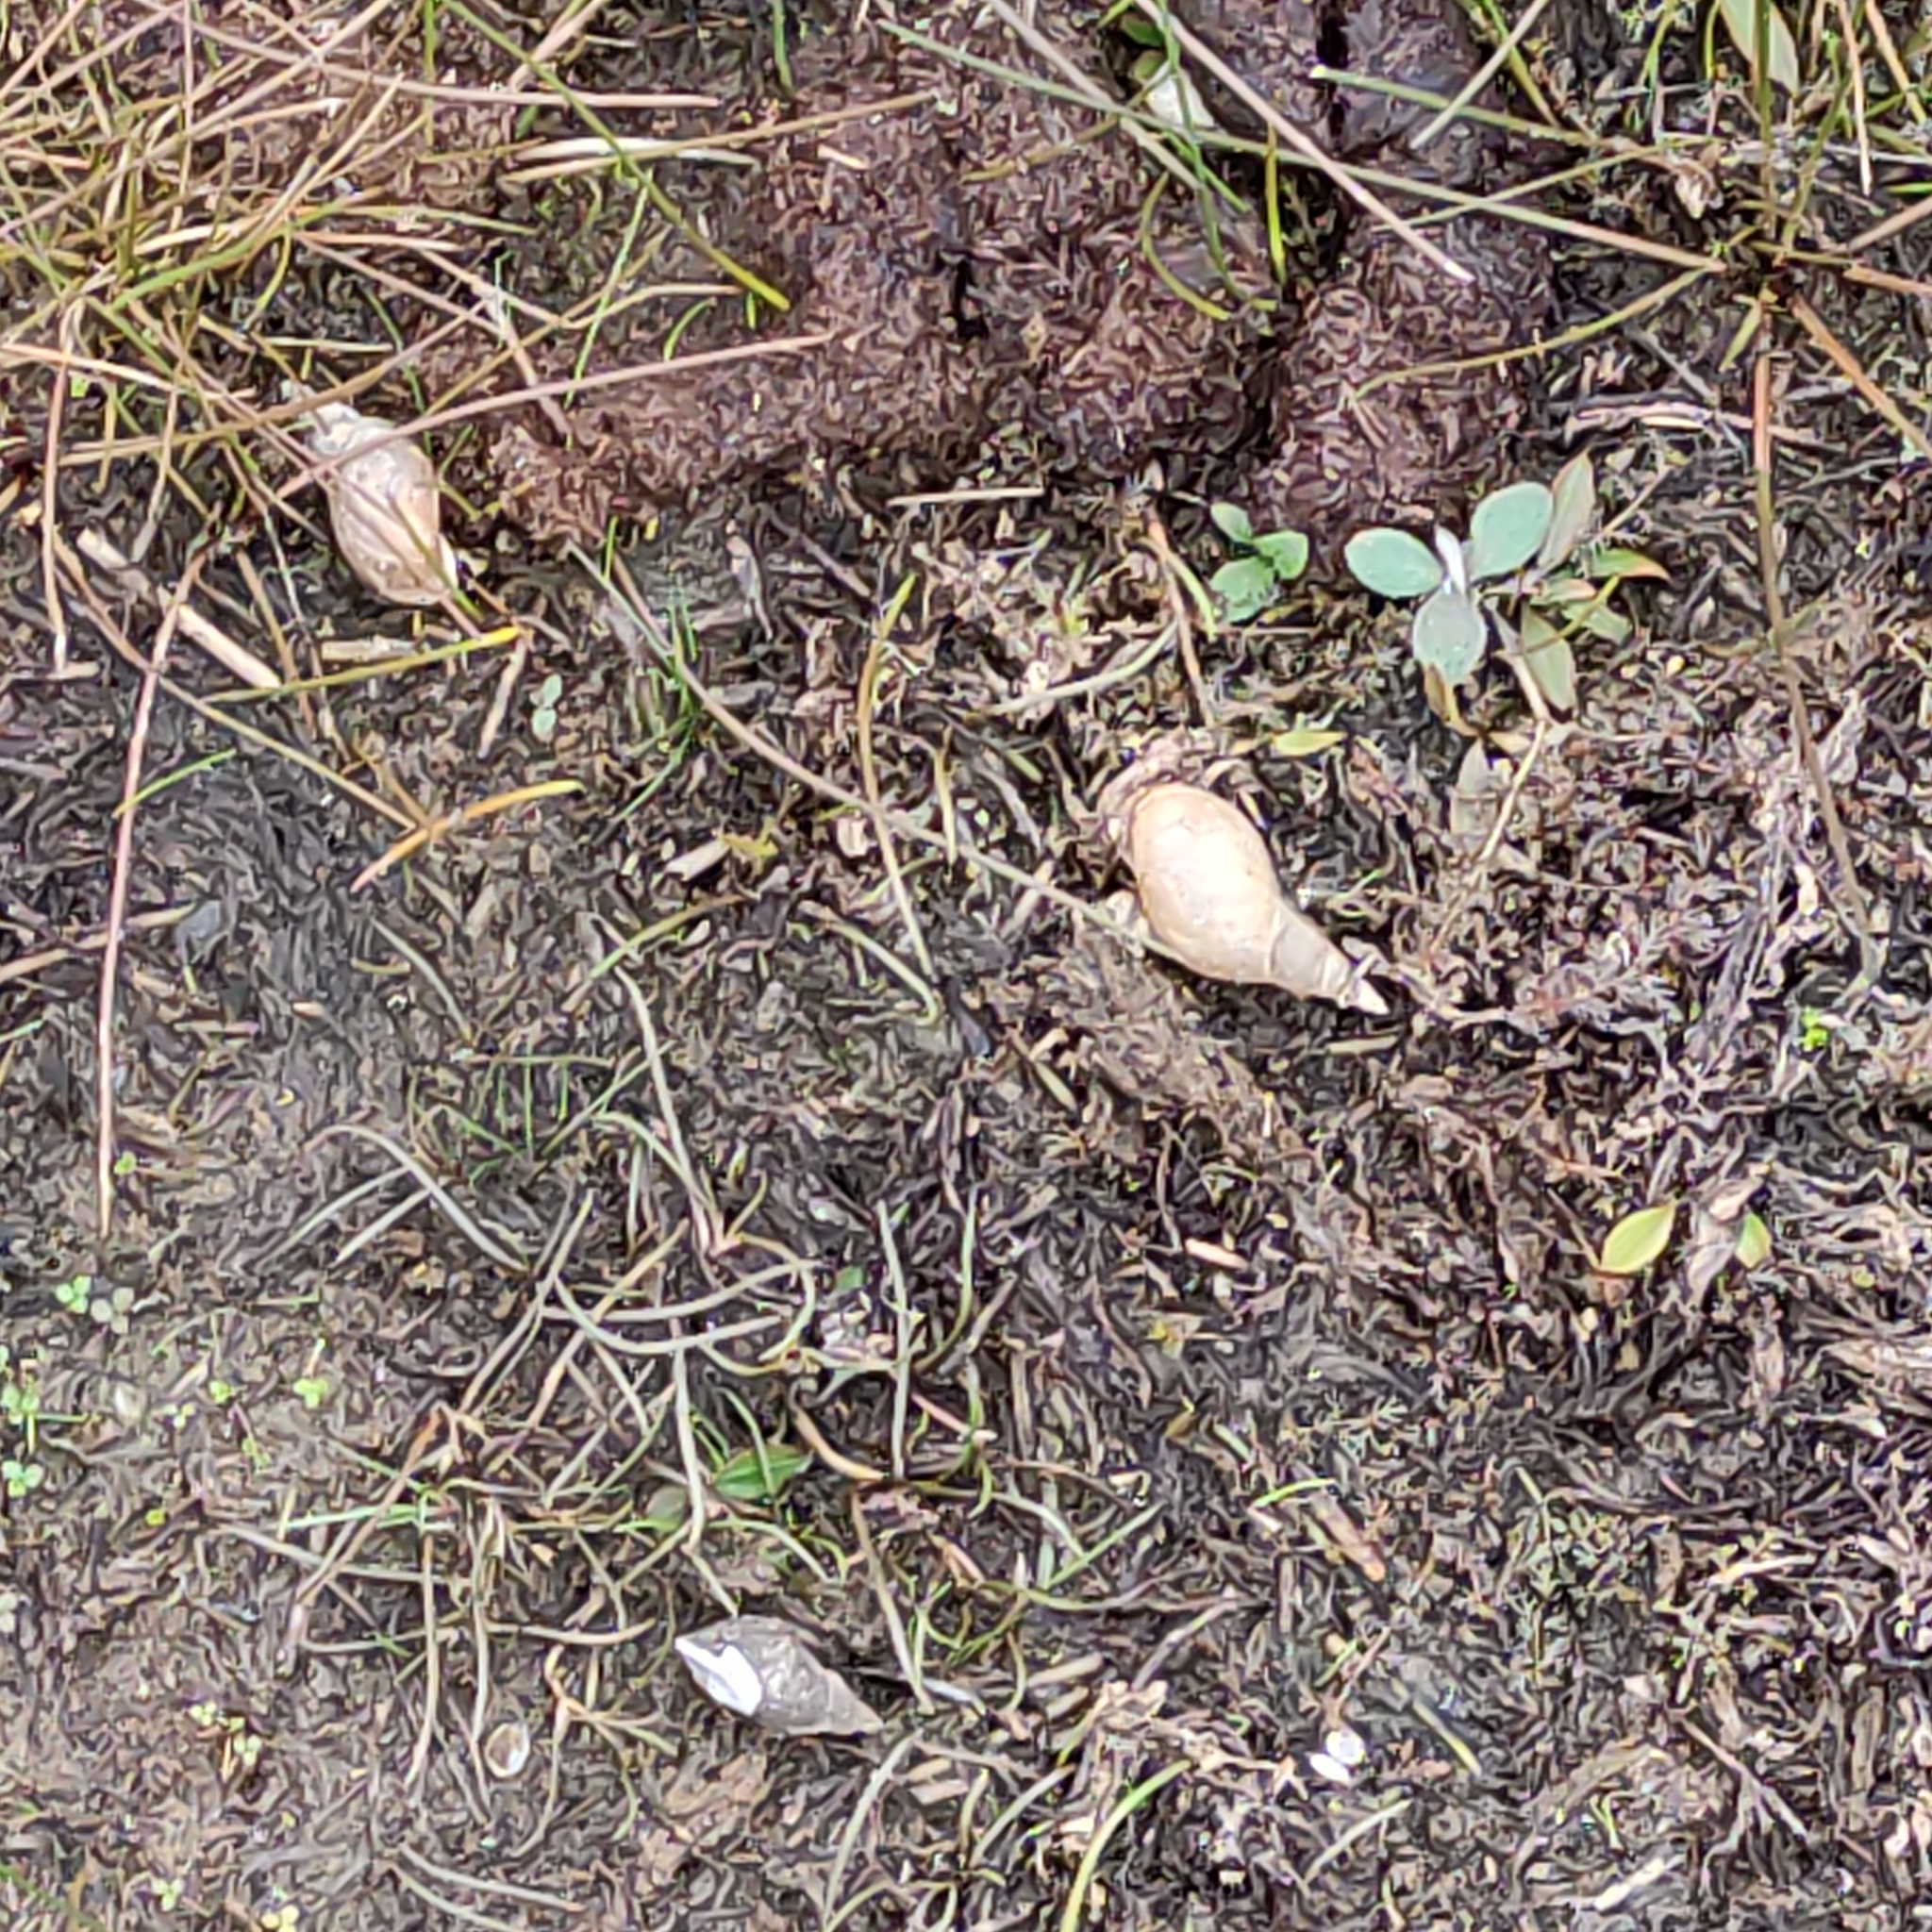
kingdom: Animalia
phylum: Mollusca
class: Gastropoda
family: Lymnaeidae
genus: Lymnaea
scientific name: Lymnaea stagnalis
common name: Great pond snail
